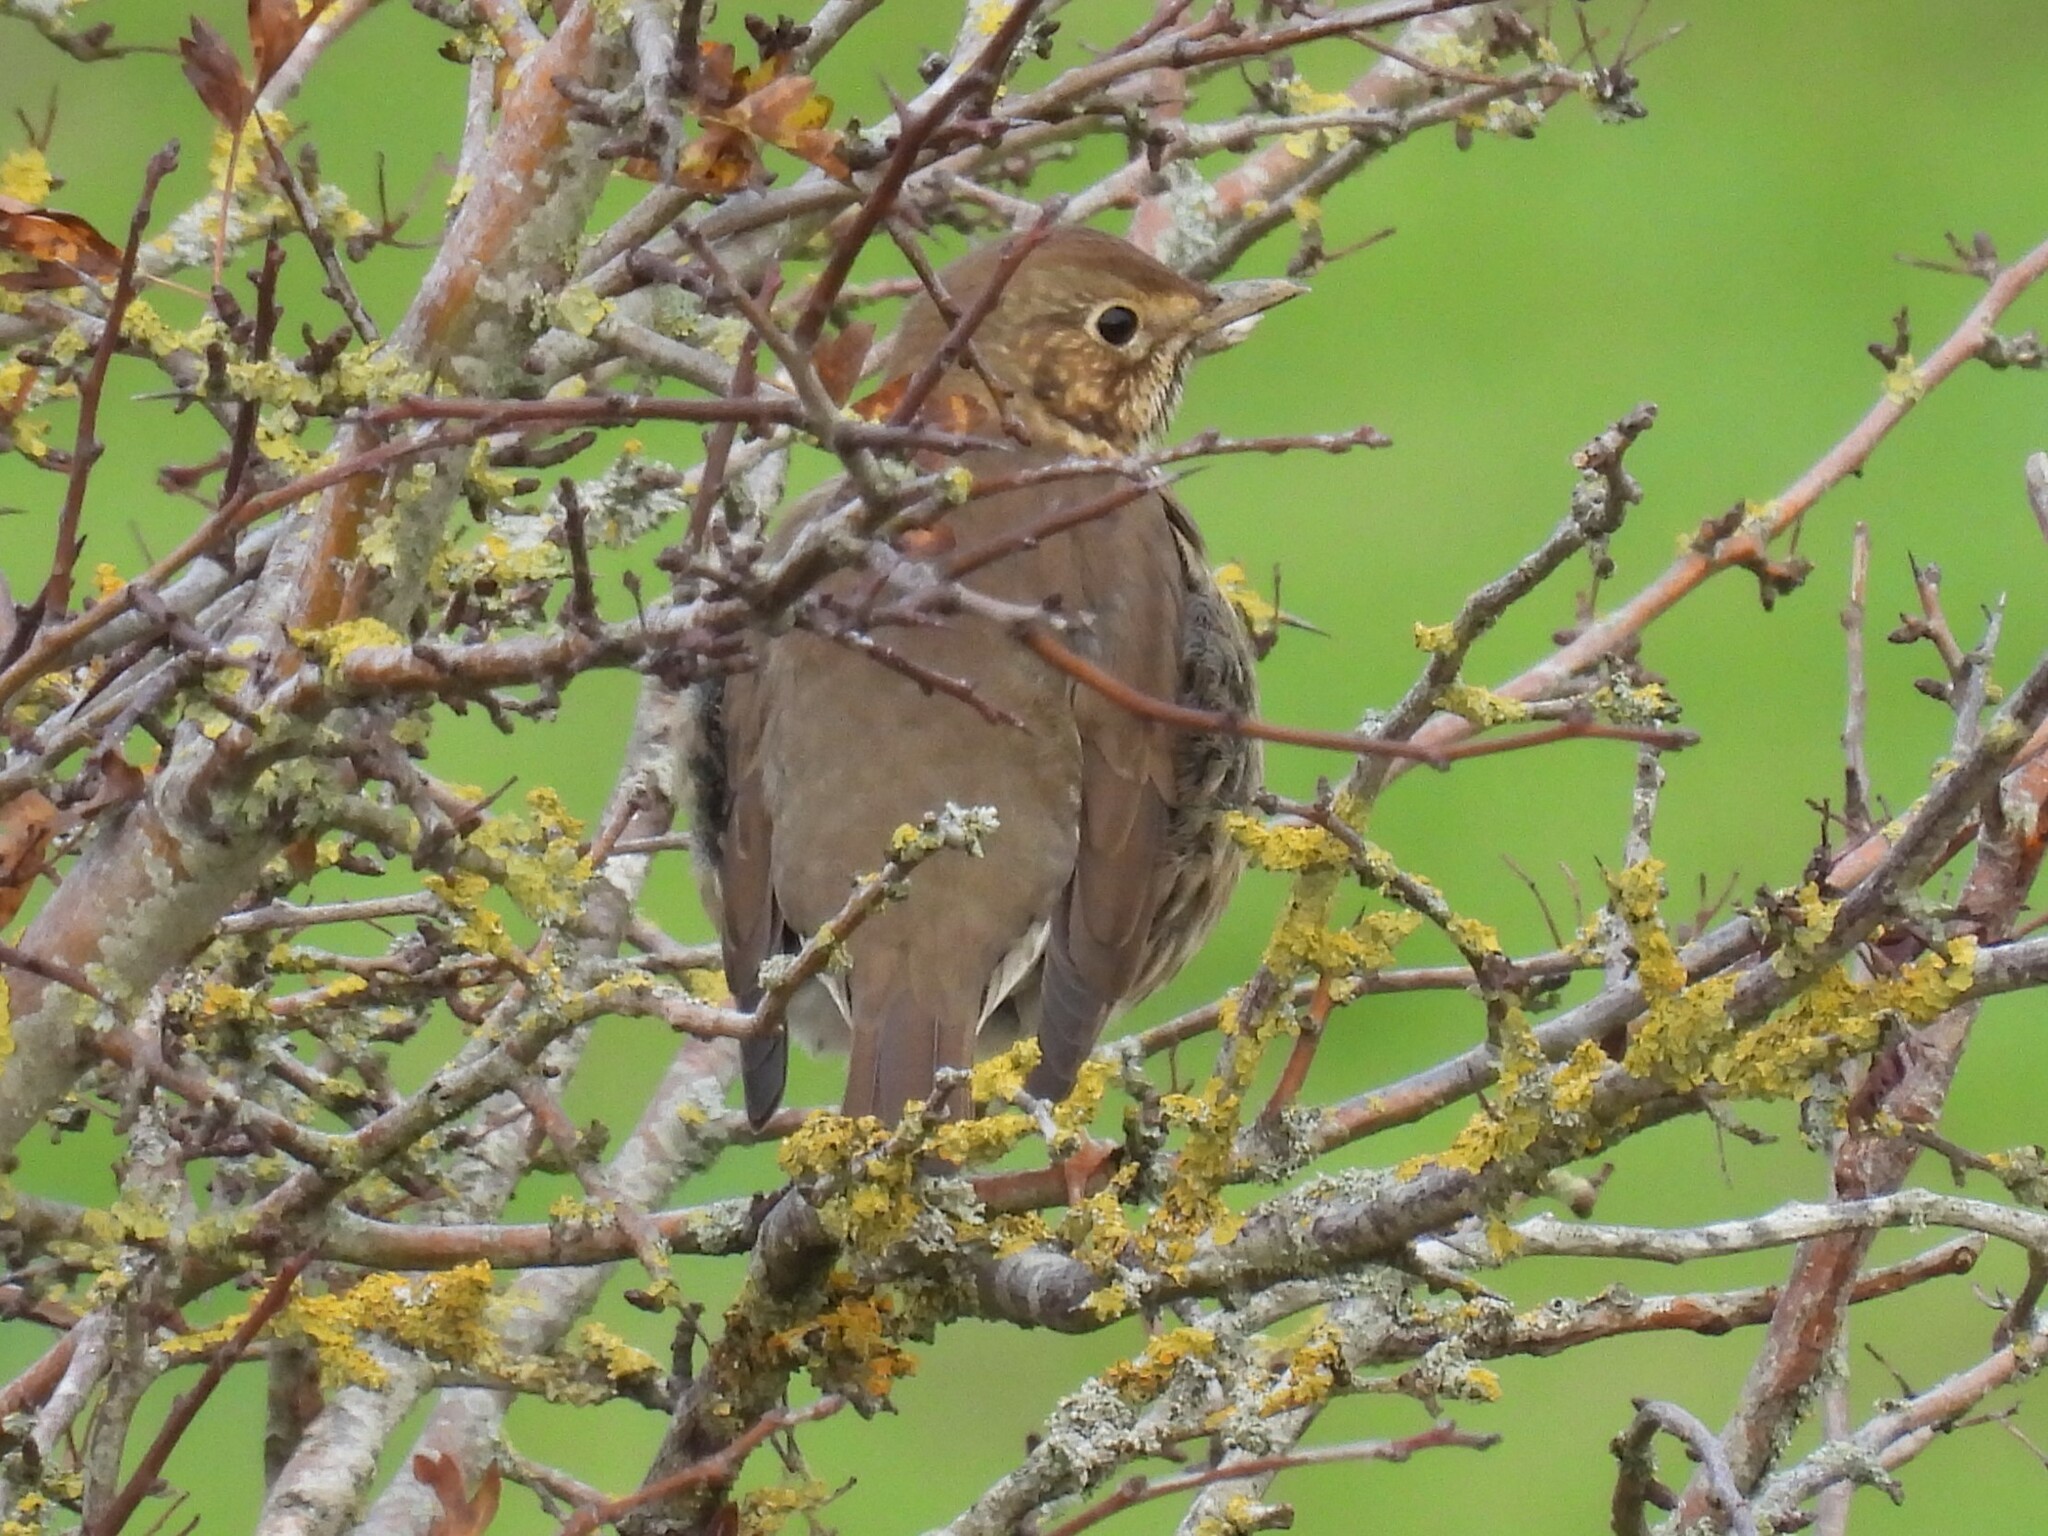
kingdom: Animalia
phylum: Chordata
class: Aves
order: Passeriformes
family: Turdidae
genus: Turdus
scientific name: Turdus philomelos
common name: Song thrush
